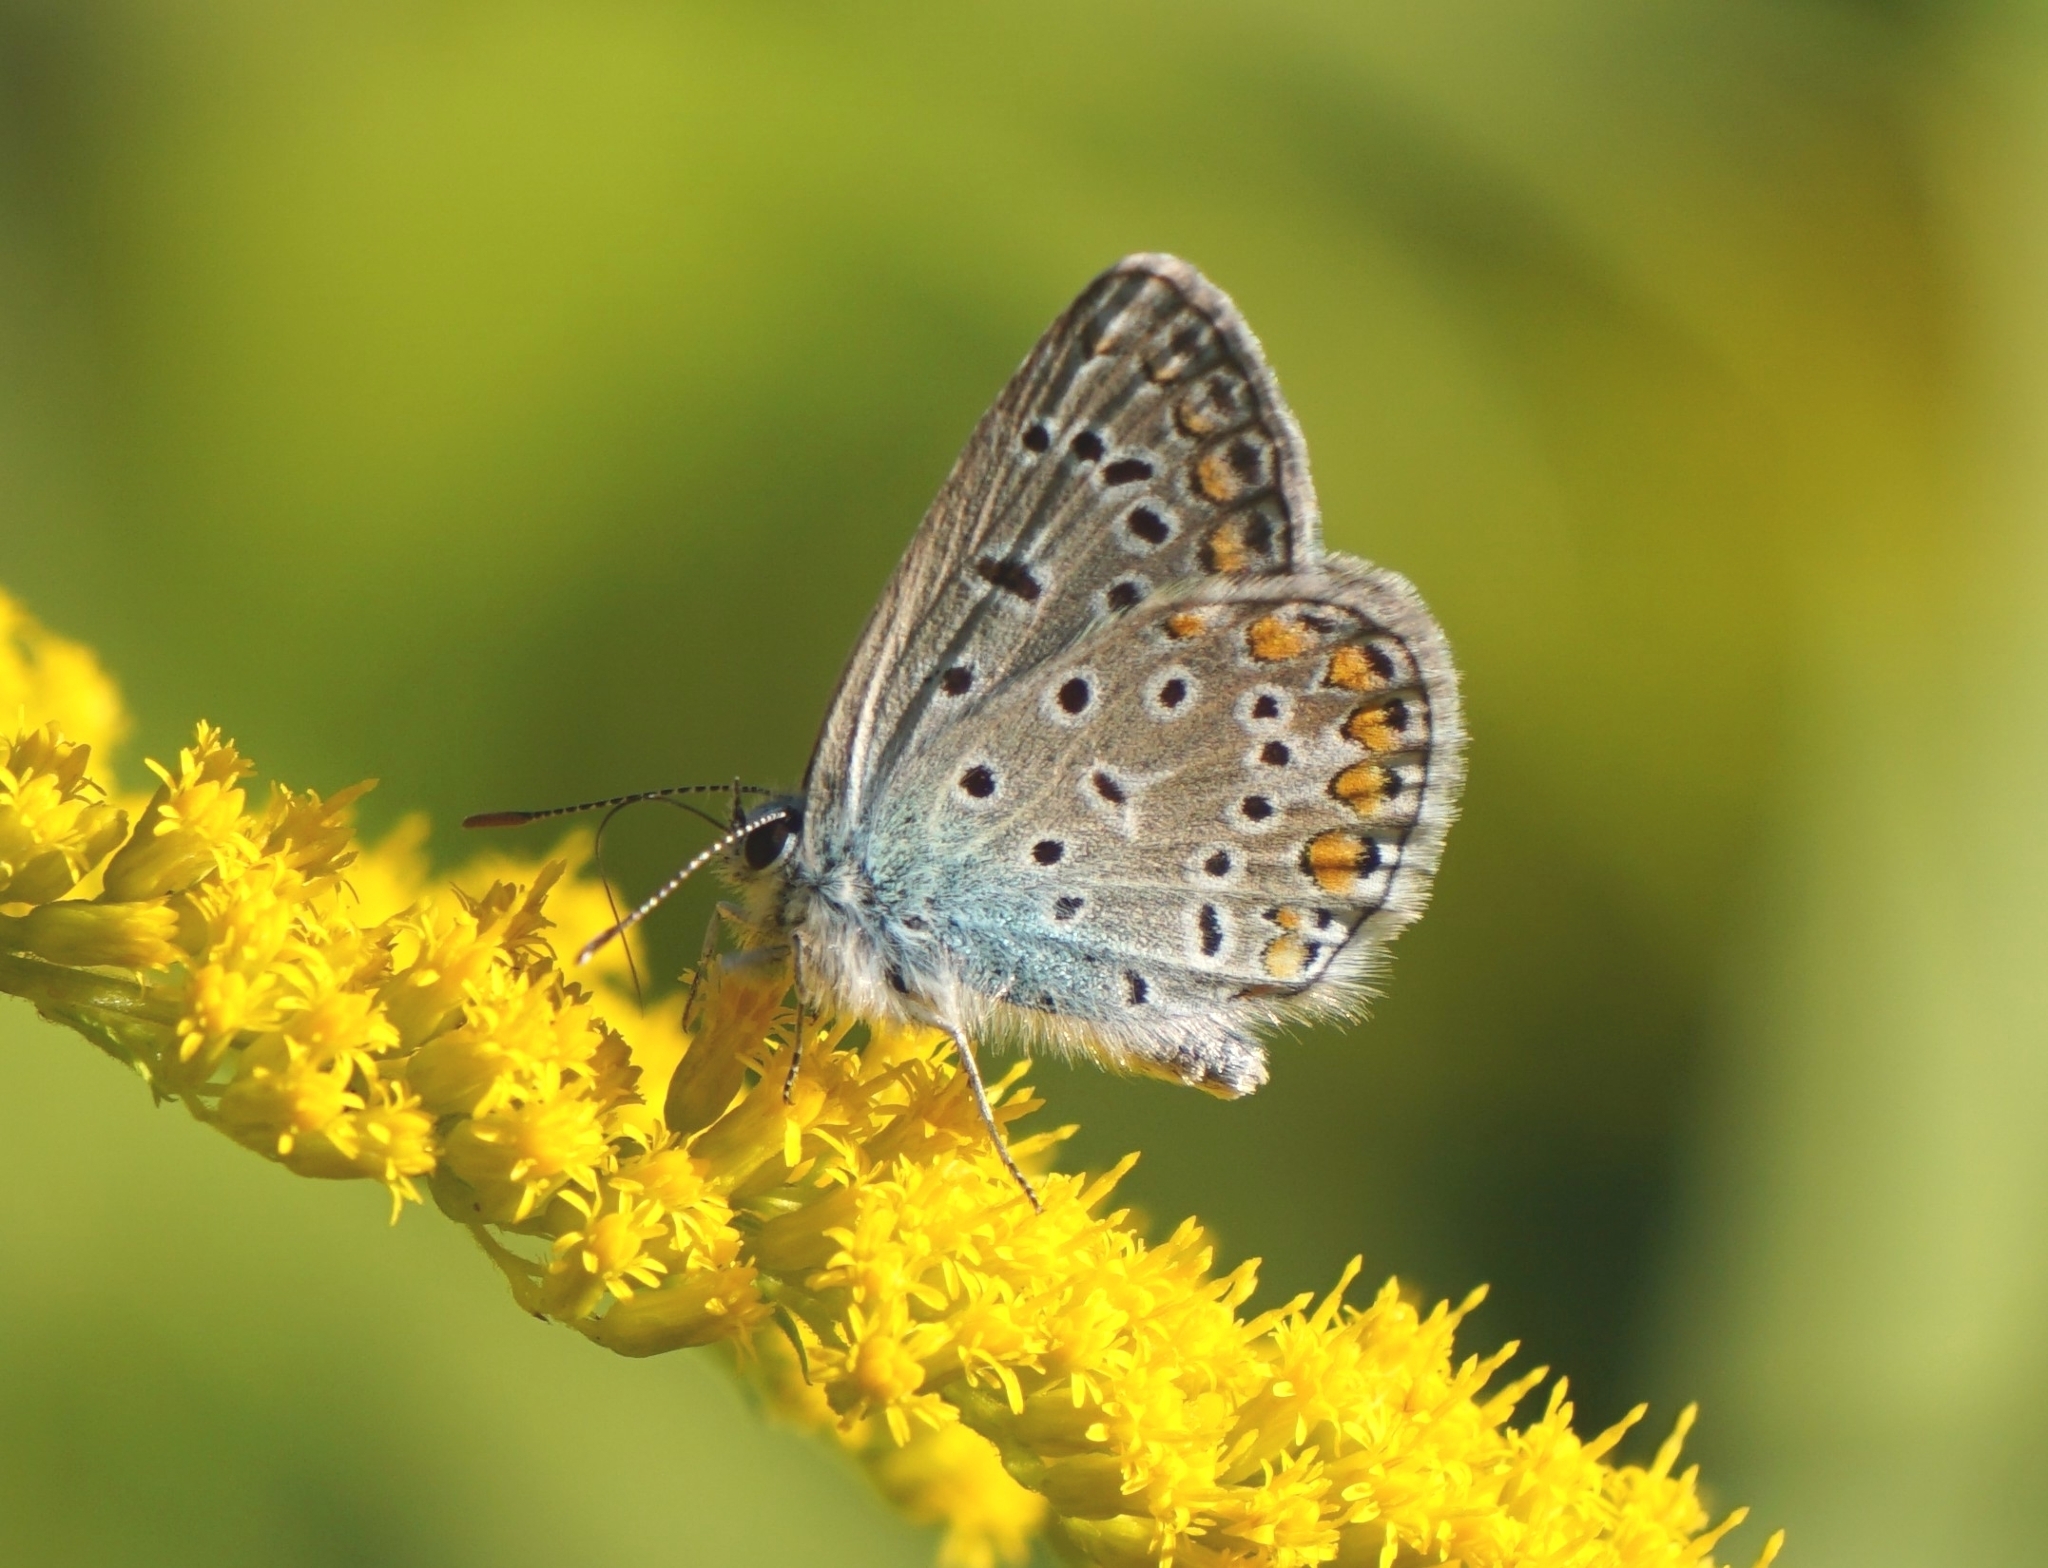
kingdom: Animalia
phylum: Arthropoda
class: Insecta
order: Lepidoptera
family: Lycaenidae
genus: Polyommatus
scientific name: Polyommatus icarus
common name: Common blue
